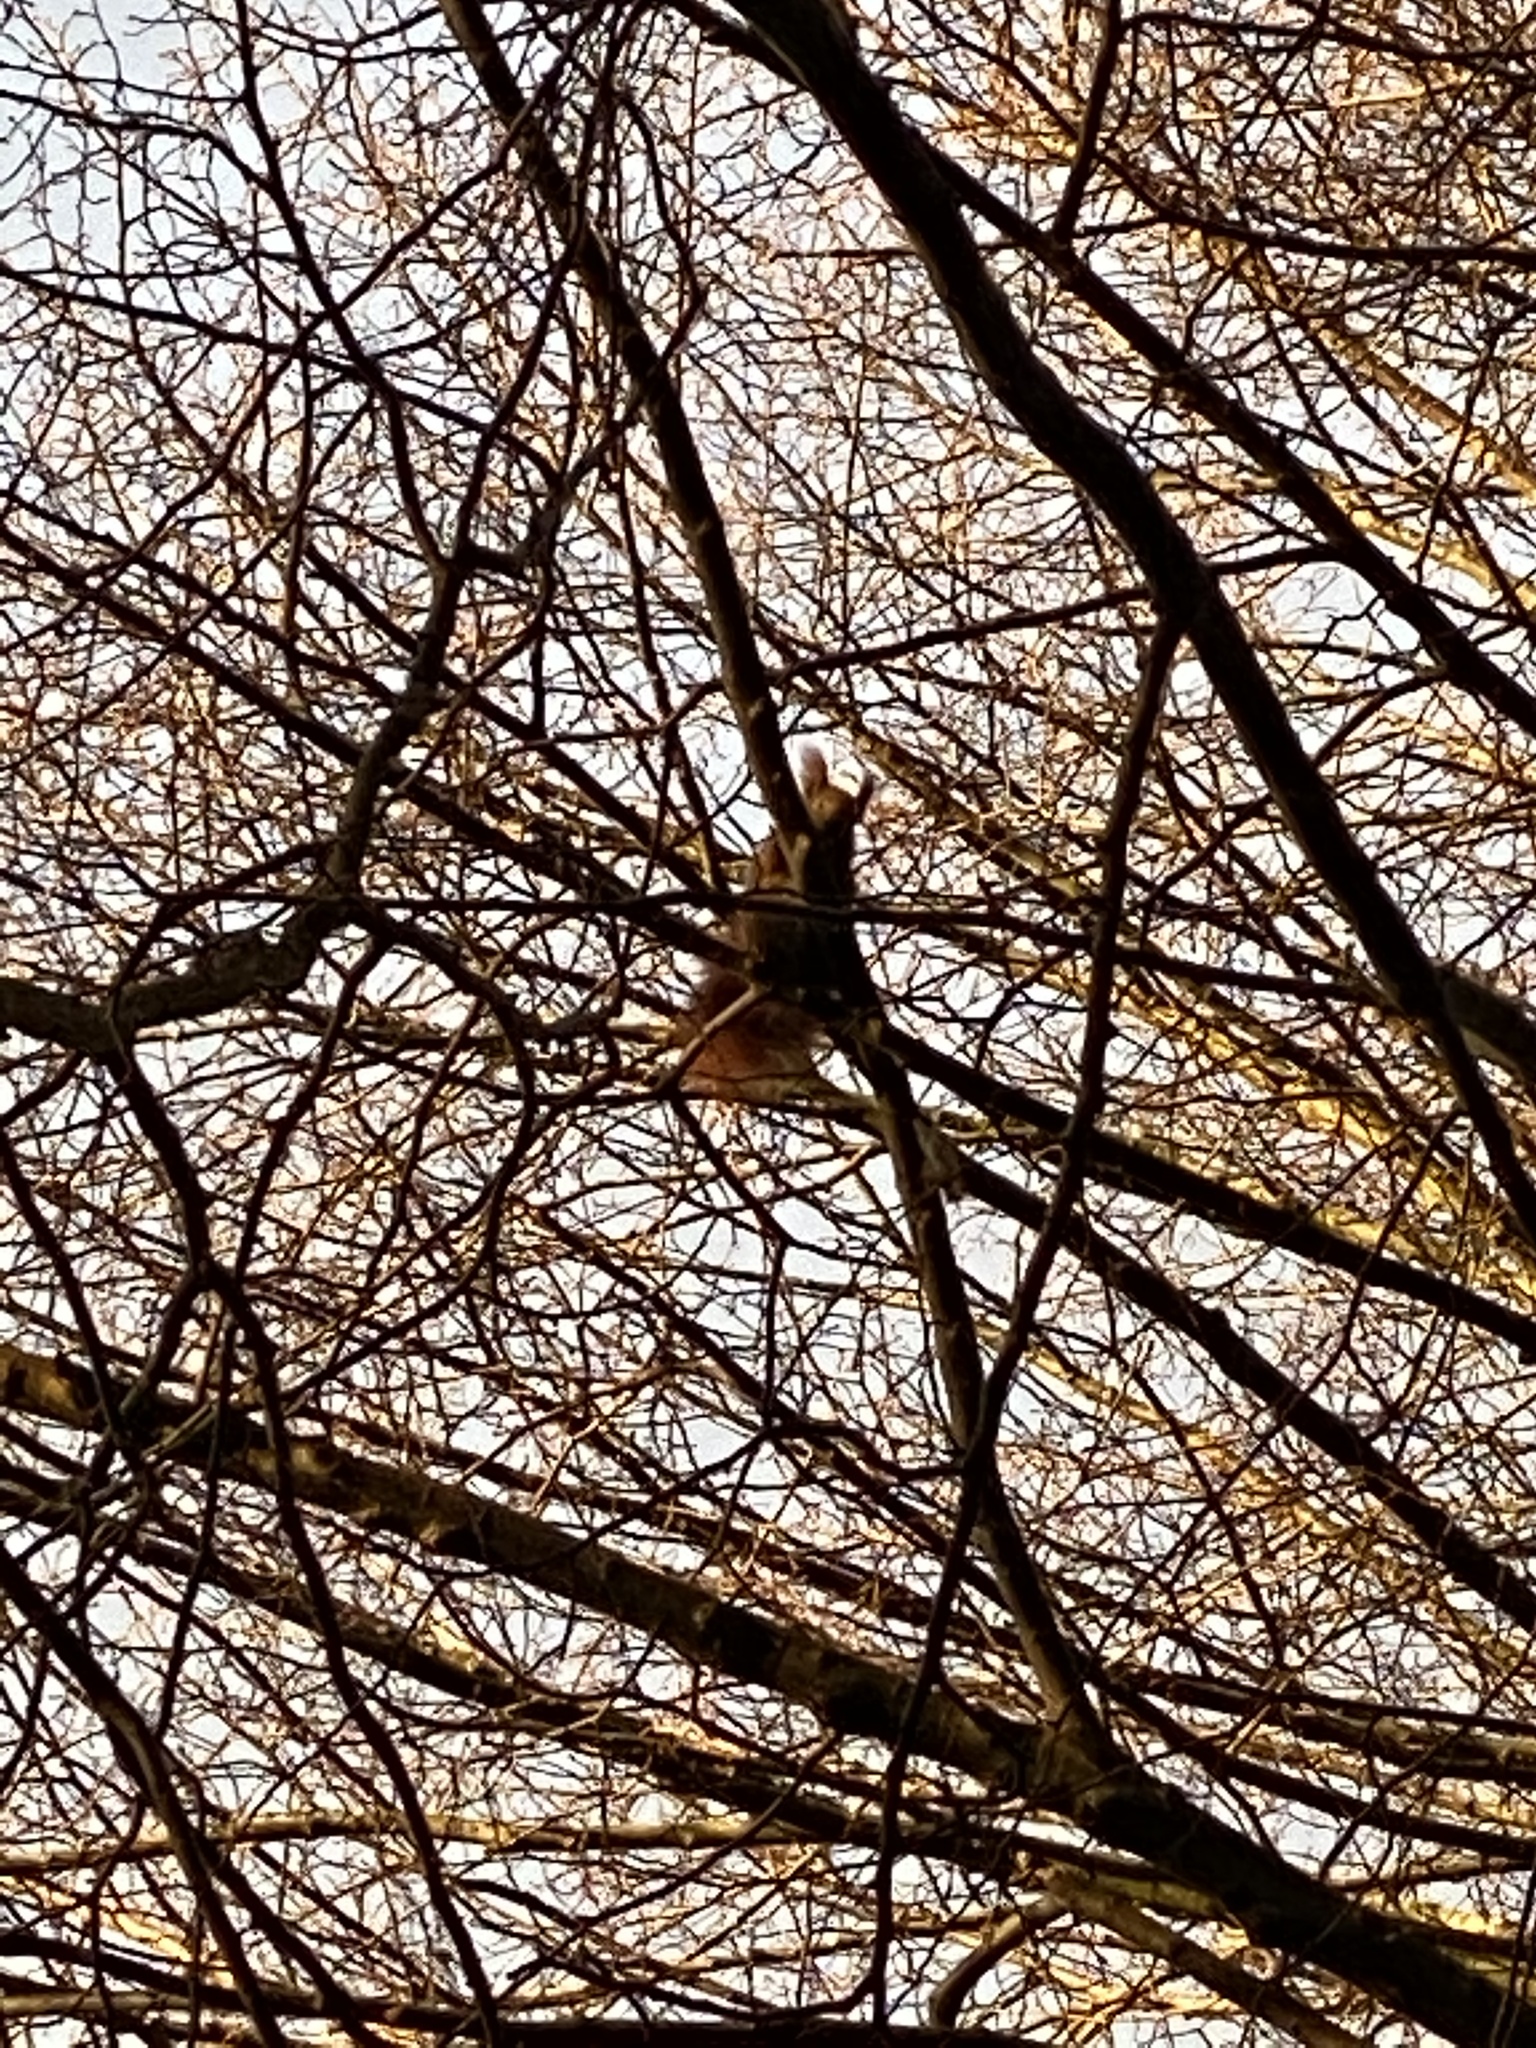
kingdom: Animalia
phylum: Chordata
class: Mammalia
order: Rodentia
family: Sciuridae
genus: Sciurus
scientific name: Sciurus vulgaris
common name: Eurasian red squirrel
